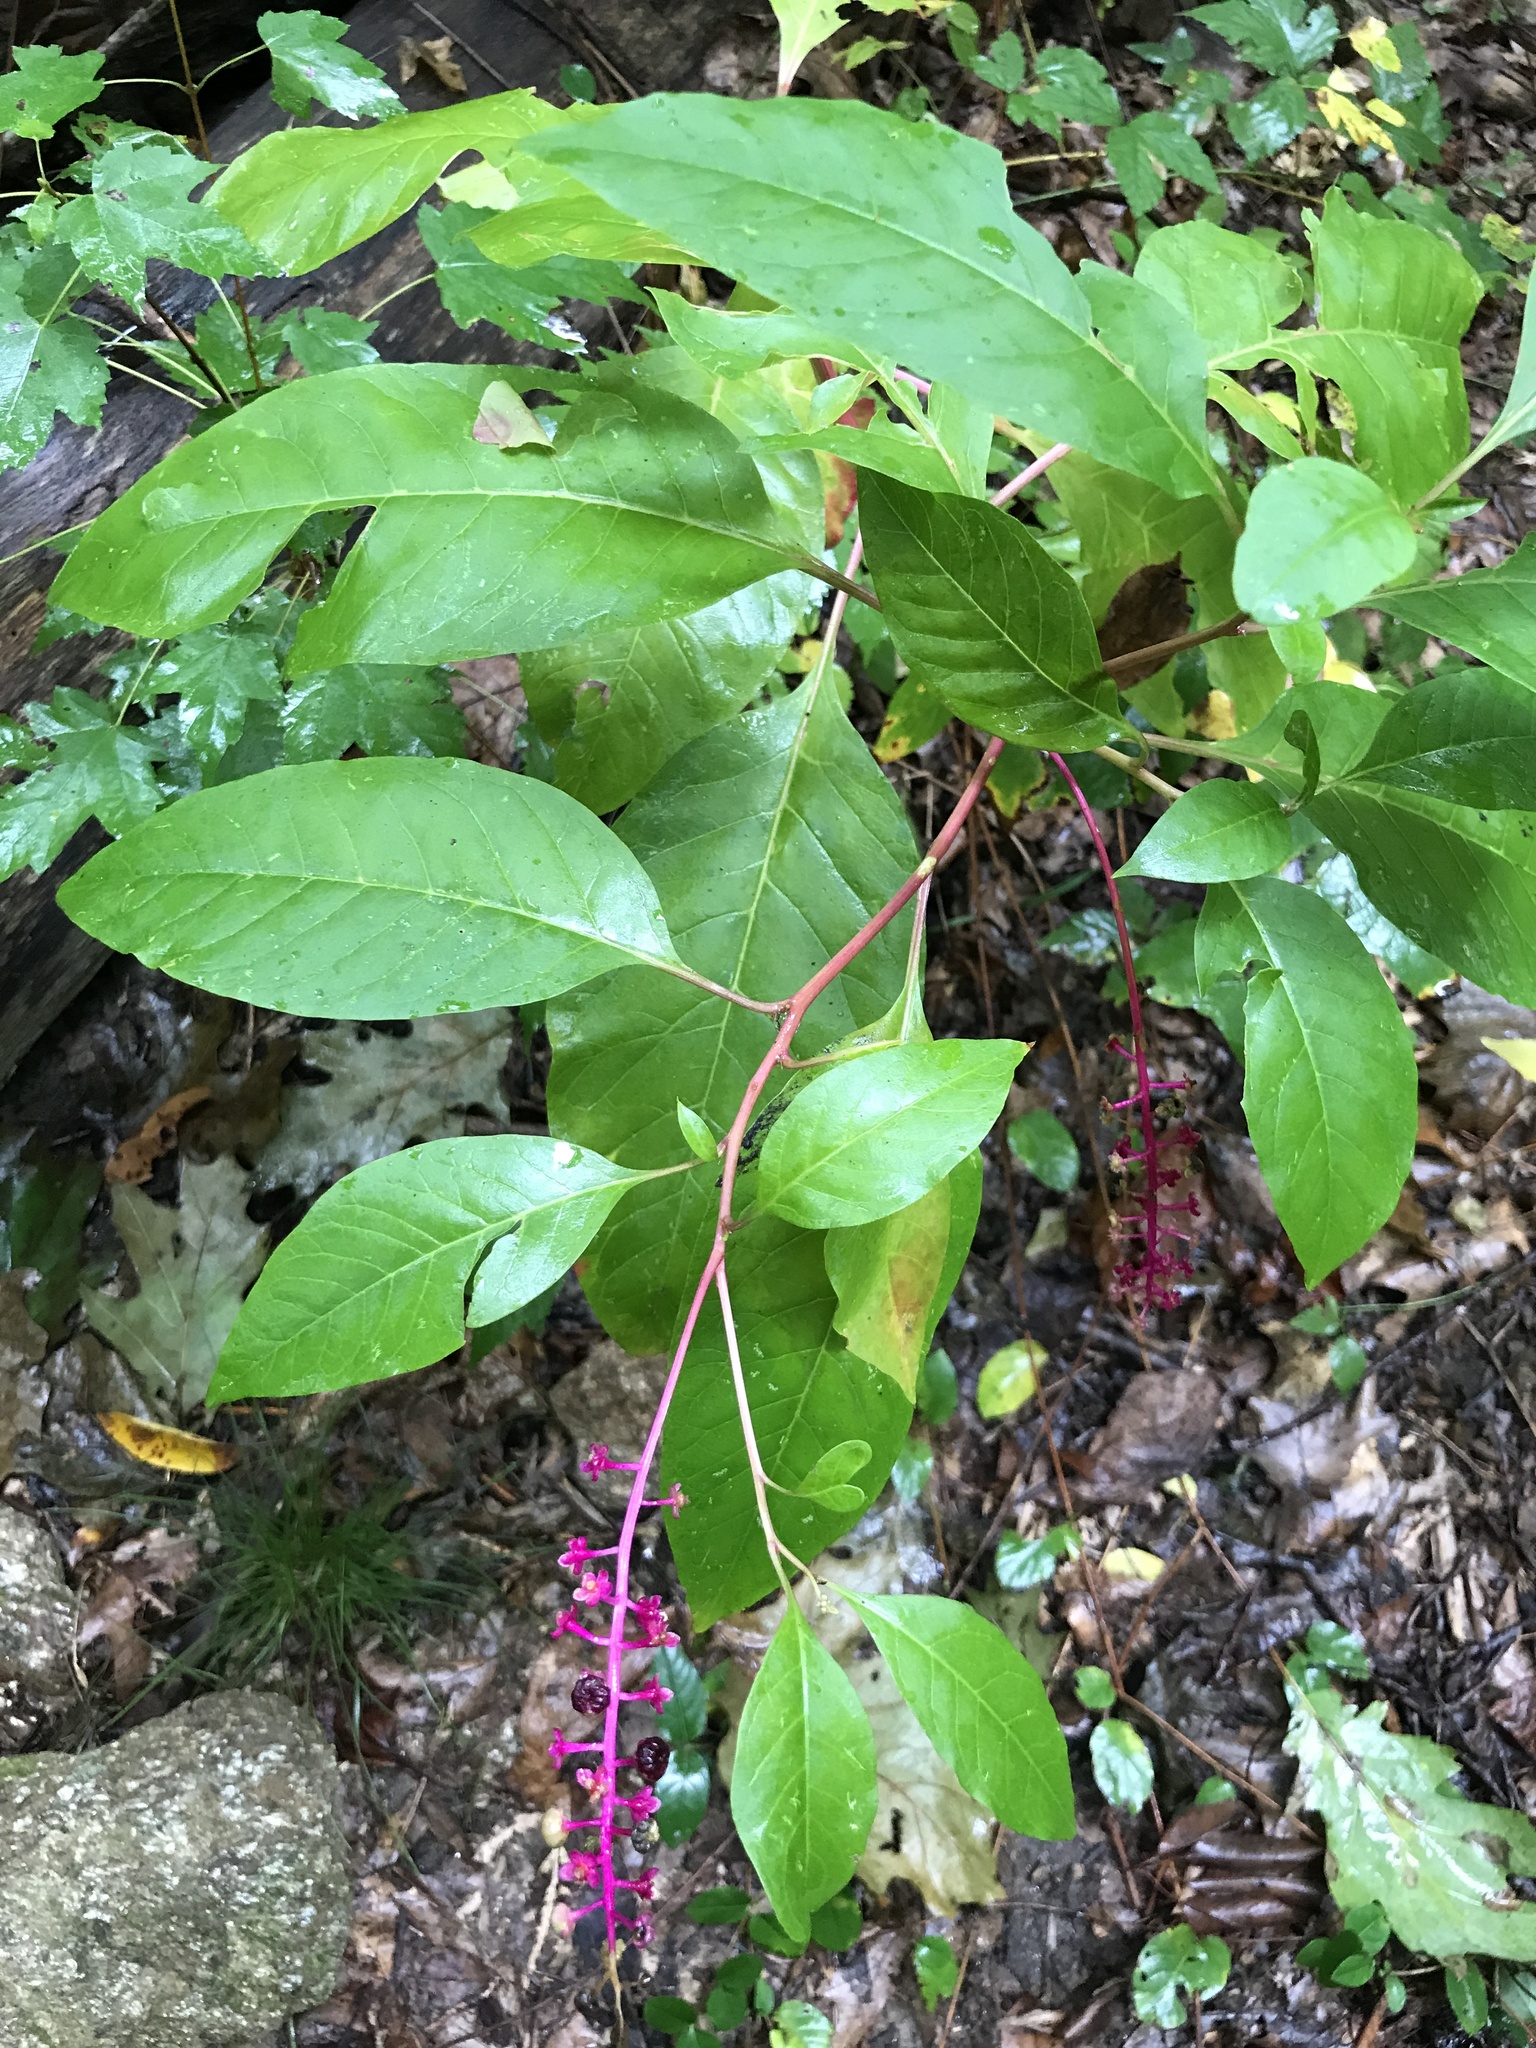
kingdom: Plantae
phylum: Tracheophyta
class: Magnoliopsida
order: Caryophyllales
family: Phytolaccaceae
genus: Phytolacca
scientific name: Phytolacca americana
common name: American pokeweed
